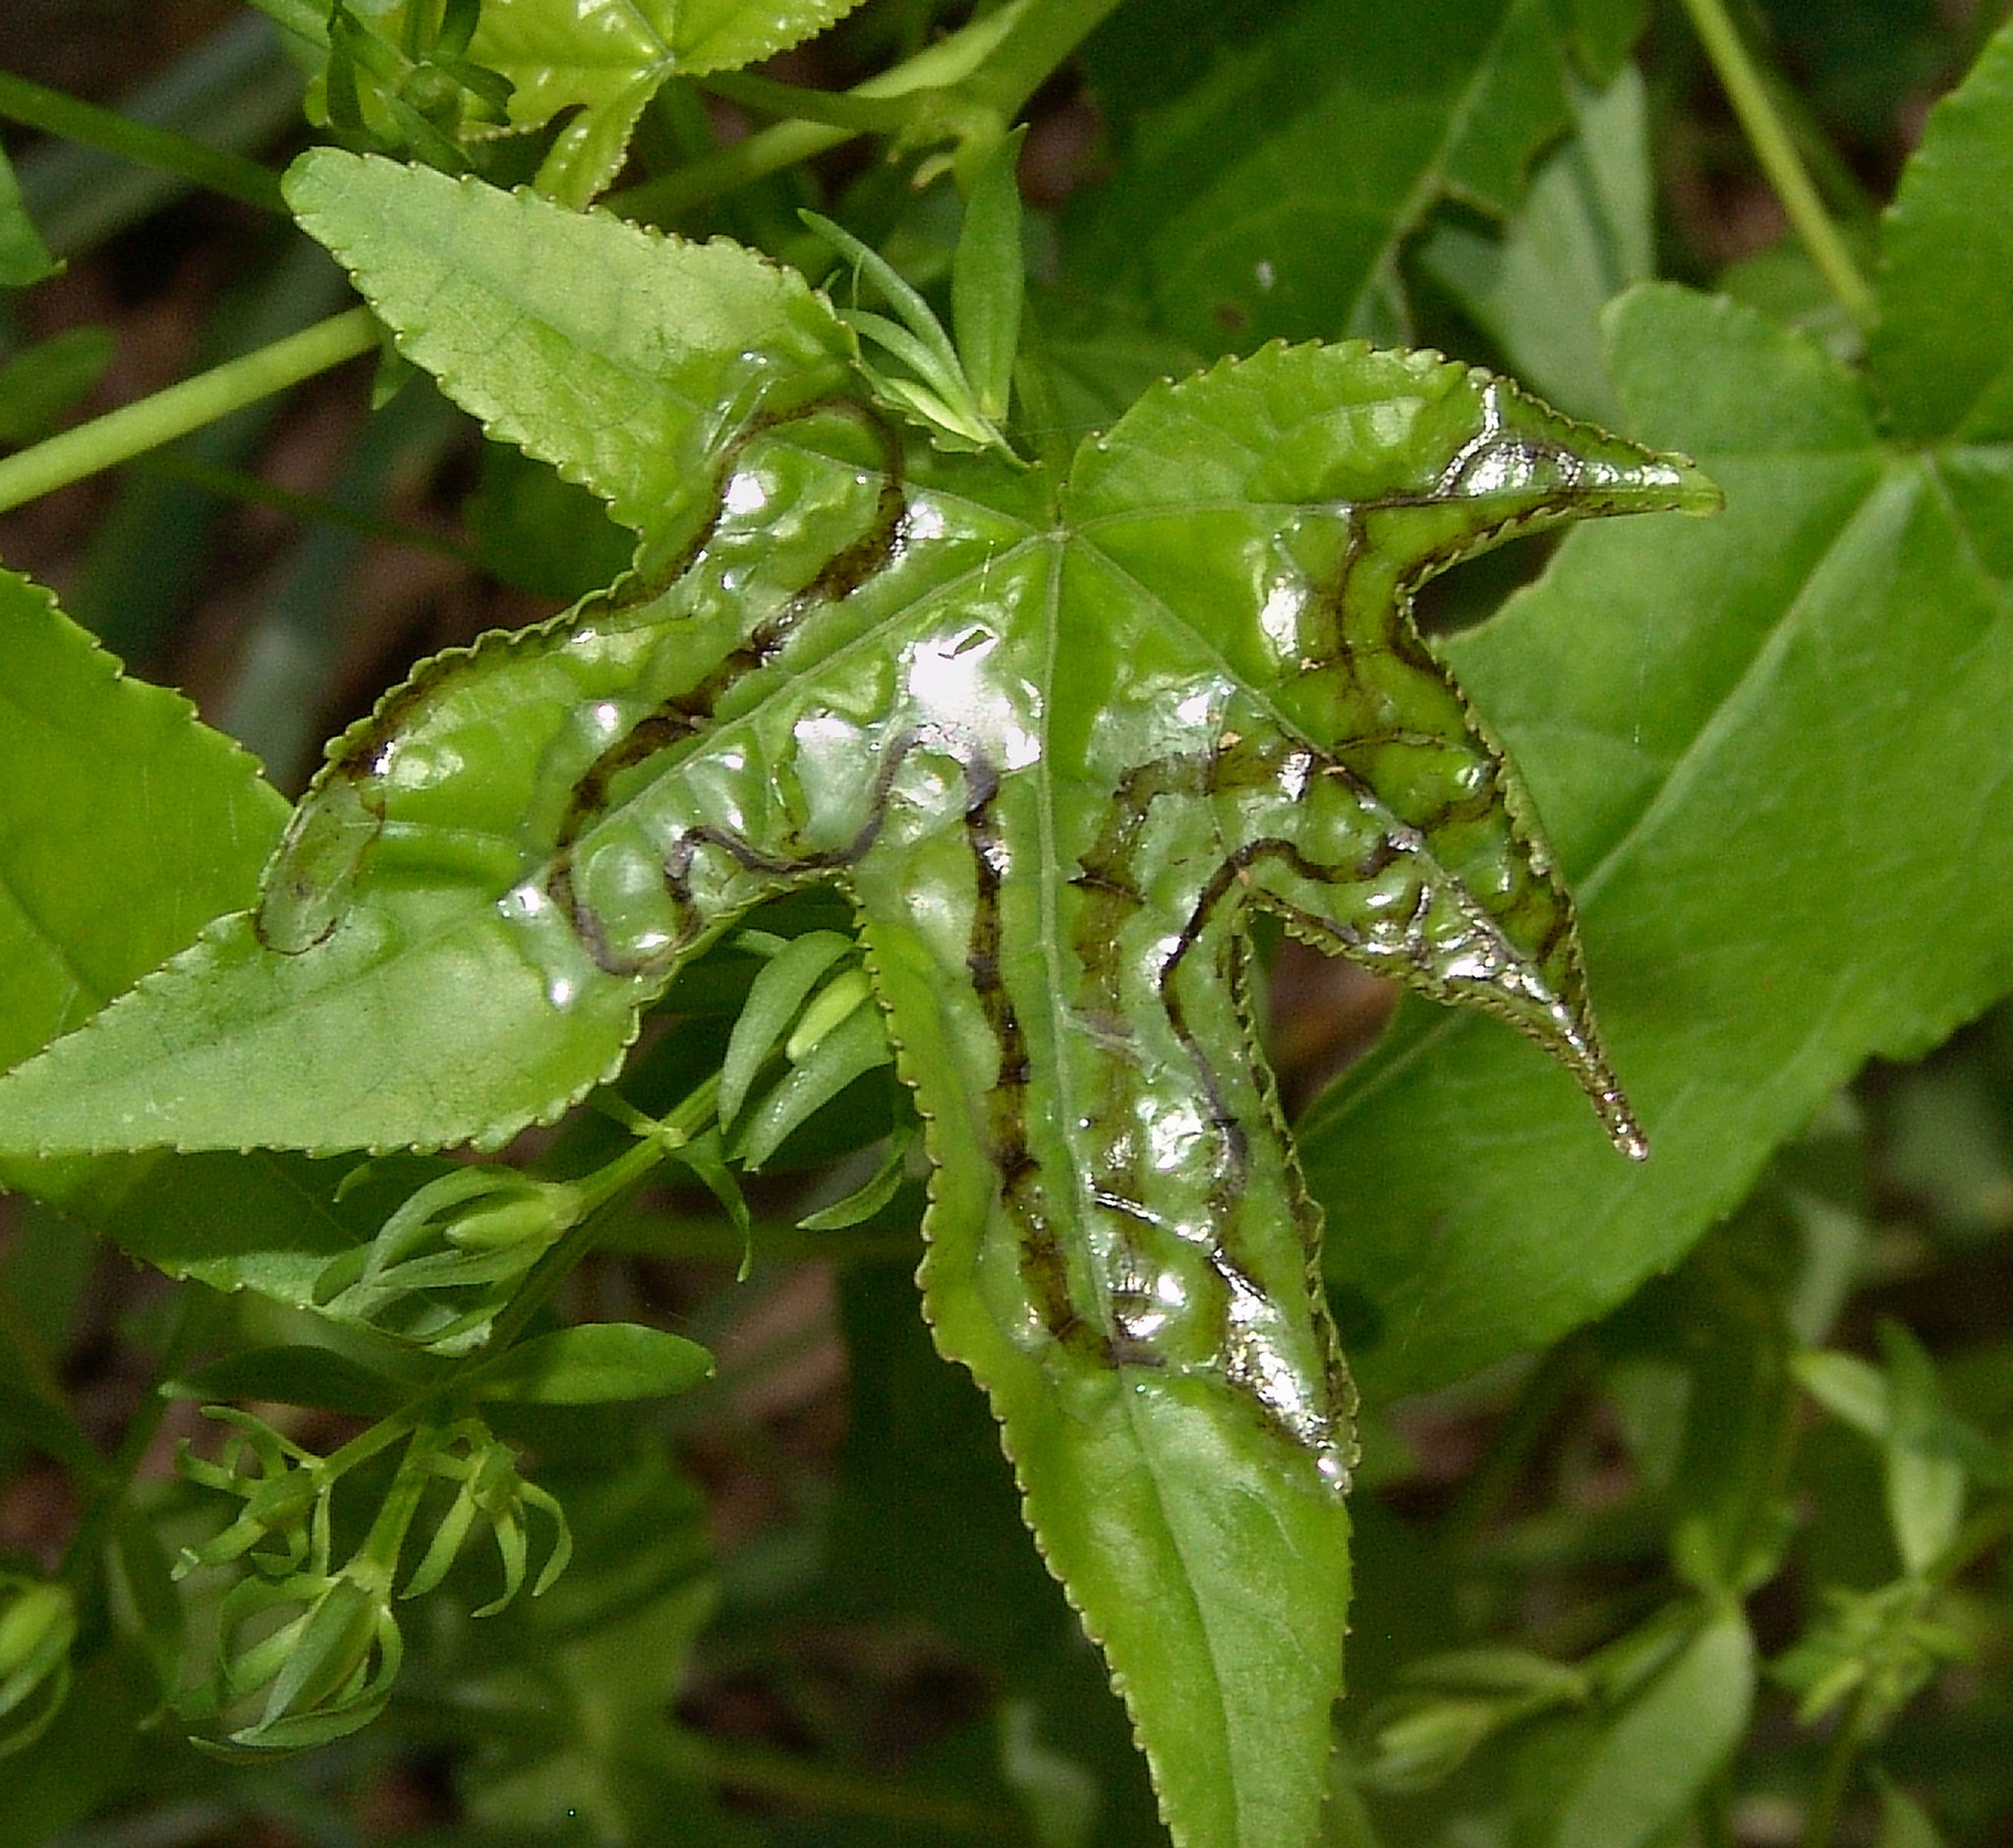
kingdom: Animalia
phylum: Arthropoda
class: Insecta
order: Lepidoptera
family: Gracillariidae
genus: Phyllocnistis
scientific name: Phyllocnistis liquidambarisella
